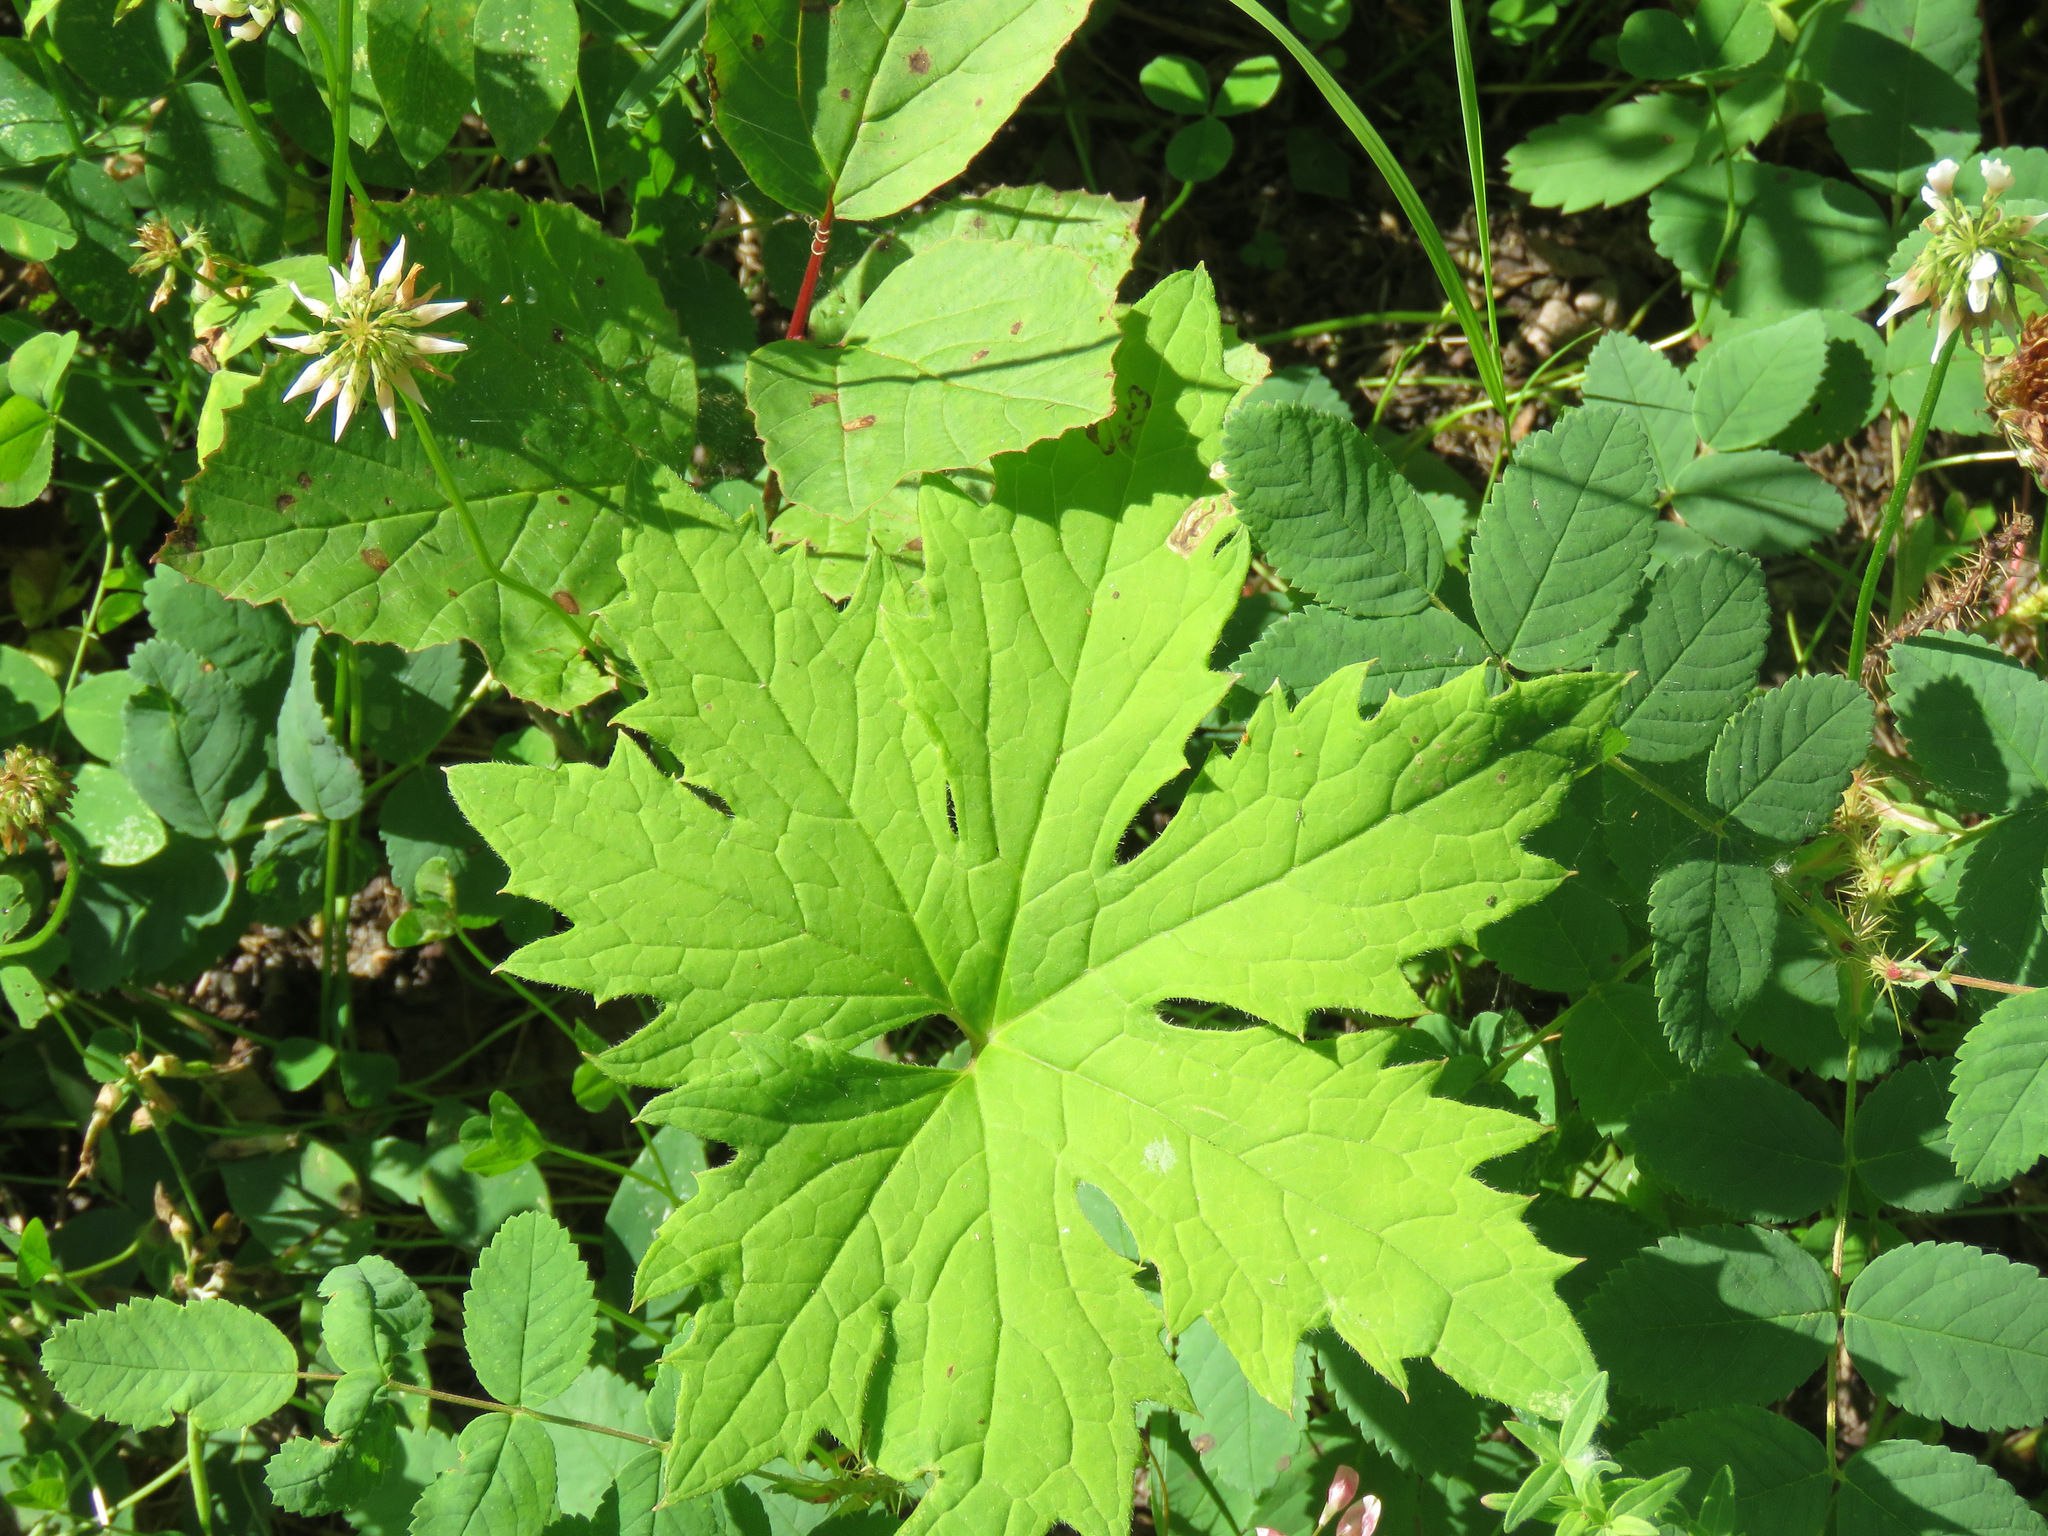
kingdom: Plantae
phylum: Tracheophyta
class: Magnoliopsida
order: Asterales
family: Asteraceae
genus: Petasites
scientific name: Petasites frigidus
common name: Arctic butterbur
